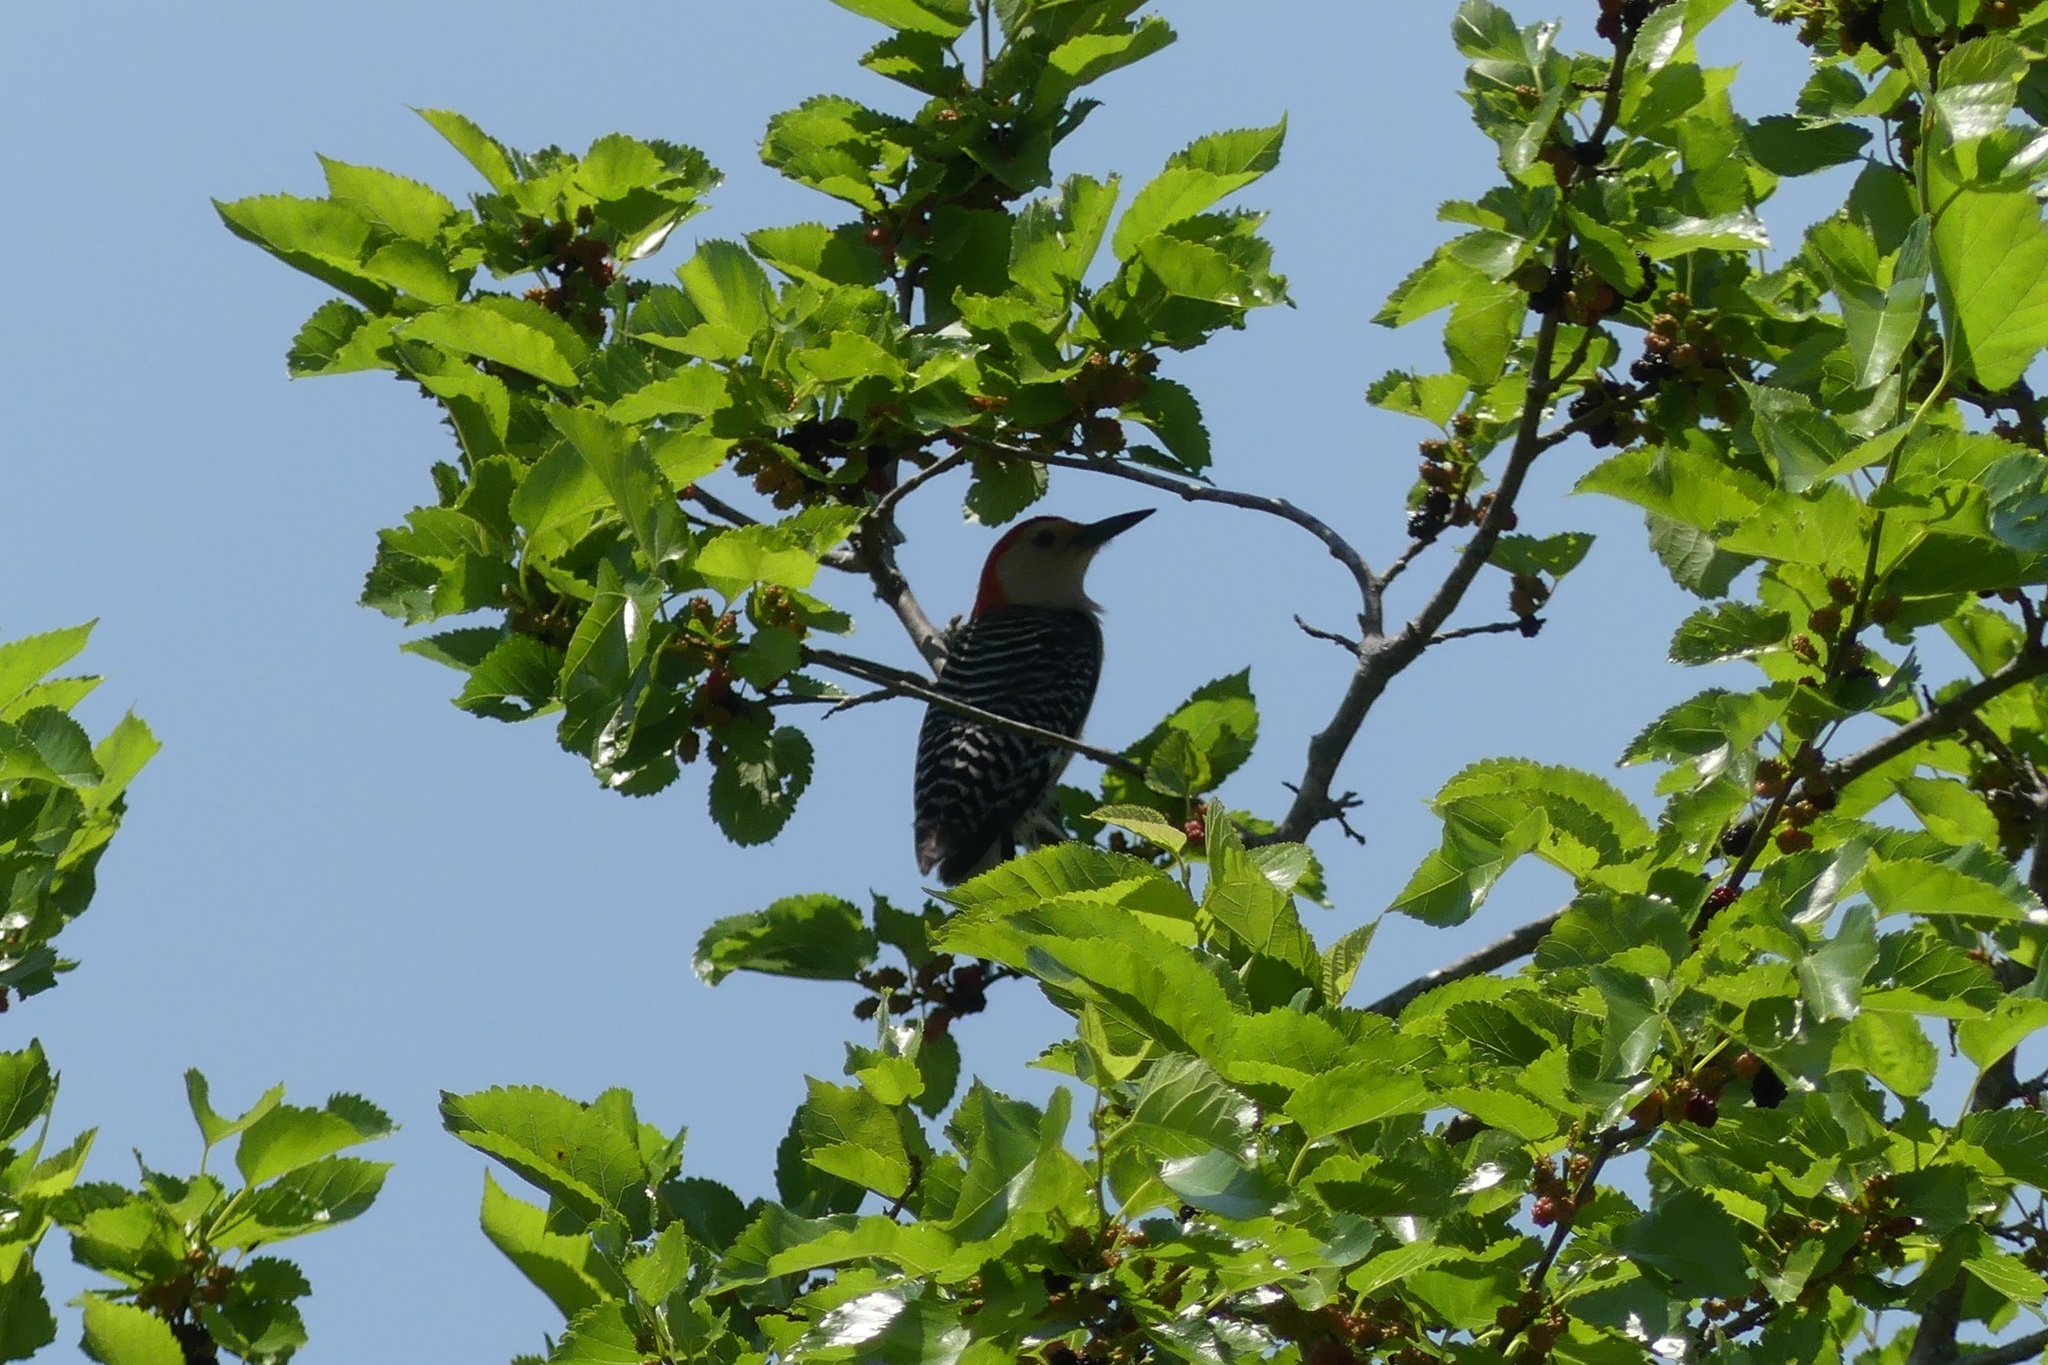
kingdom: Animalia
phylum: Chordata
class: Aves
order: Piciformes
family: Picidae
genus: Melanerpes
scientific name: Melanerpes carolinus
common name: Red-bellied woodpecker
